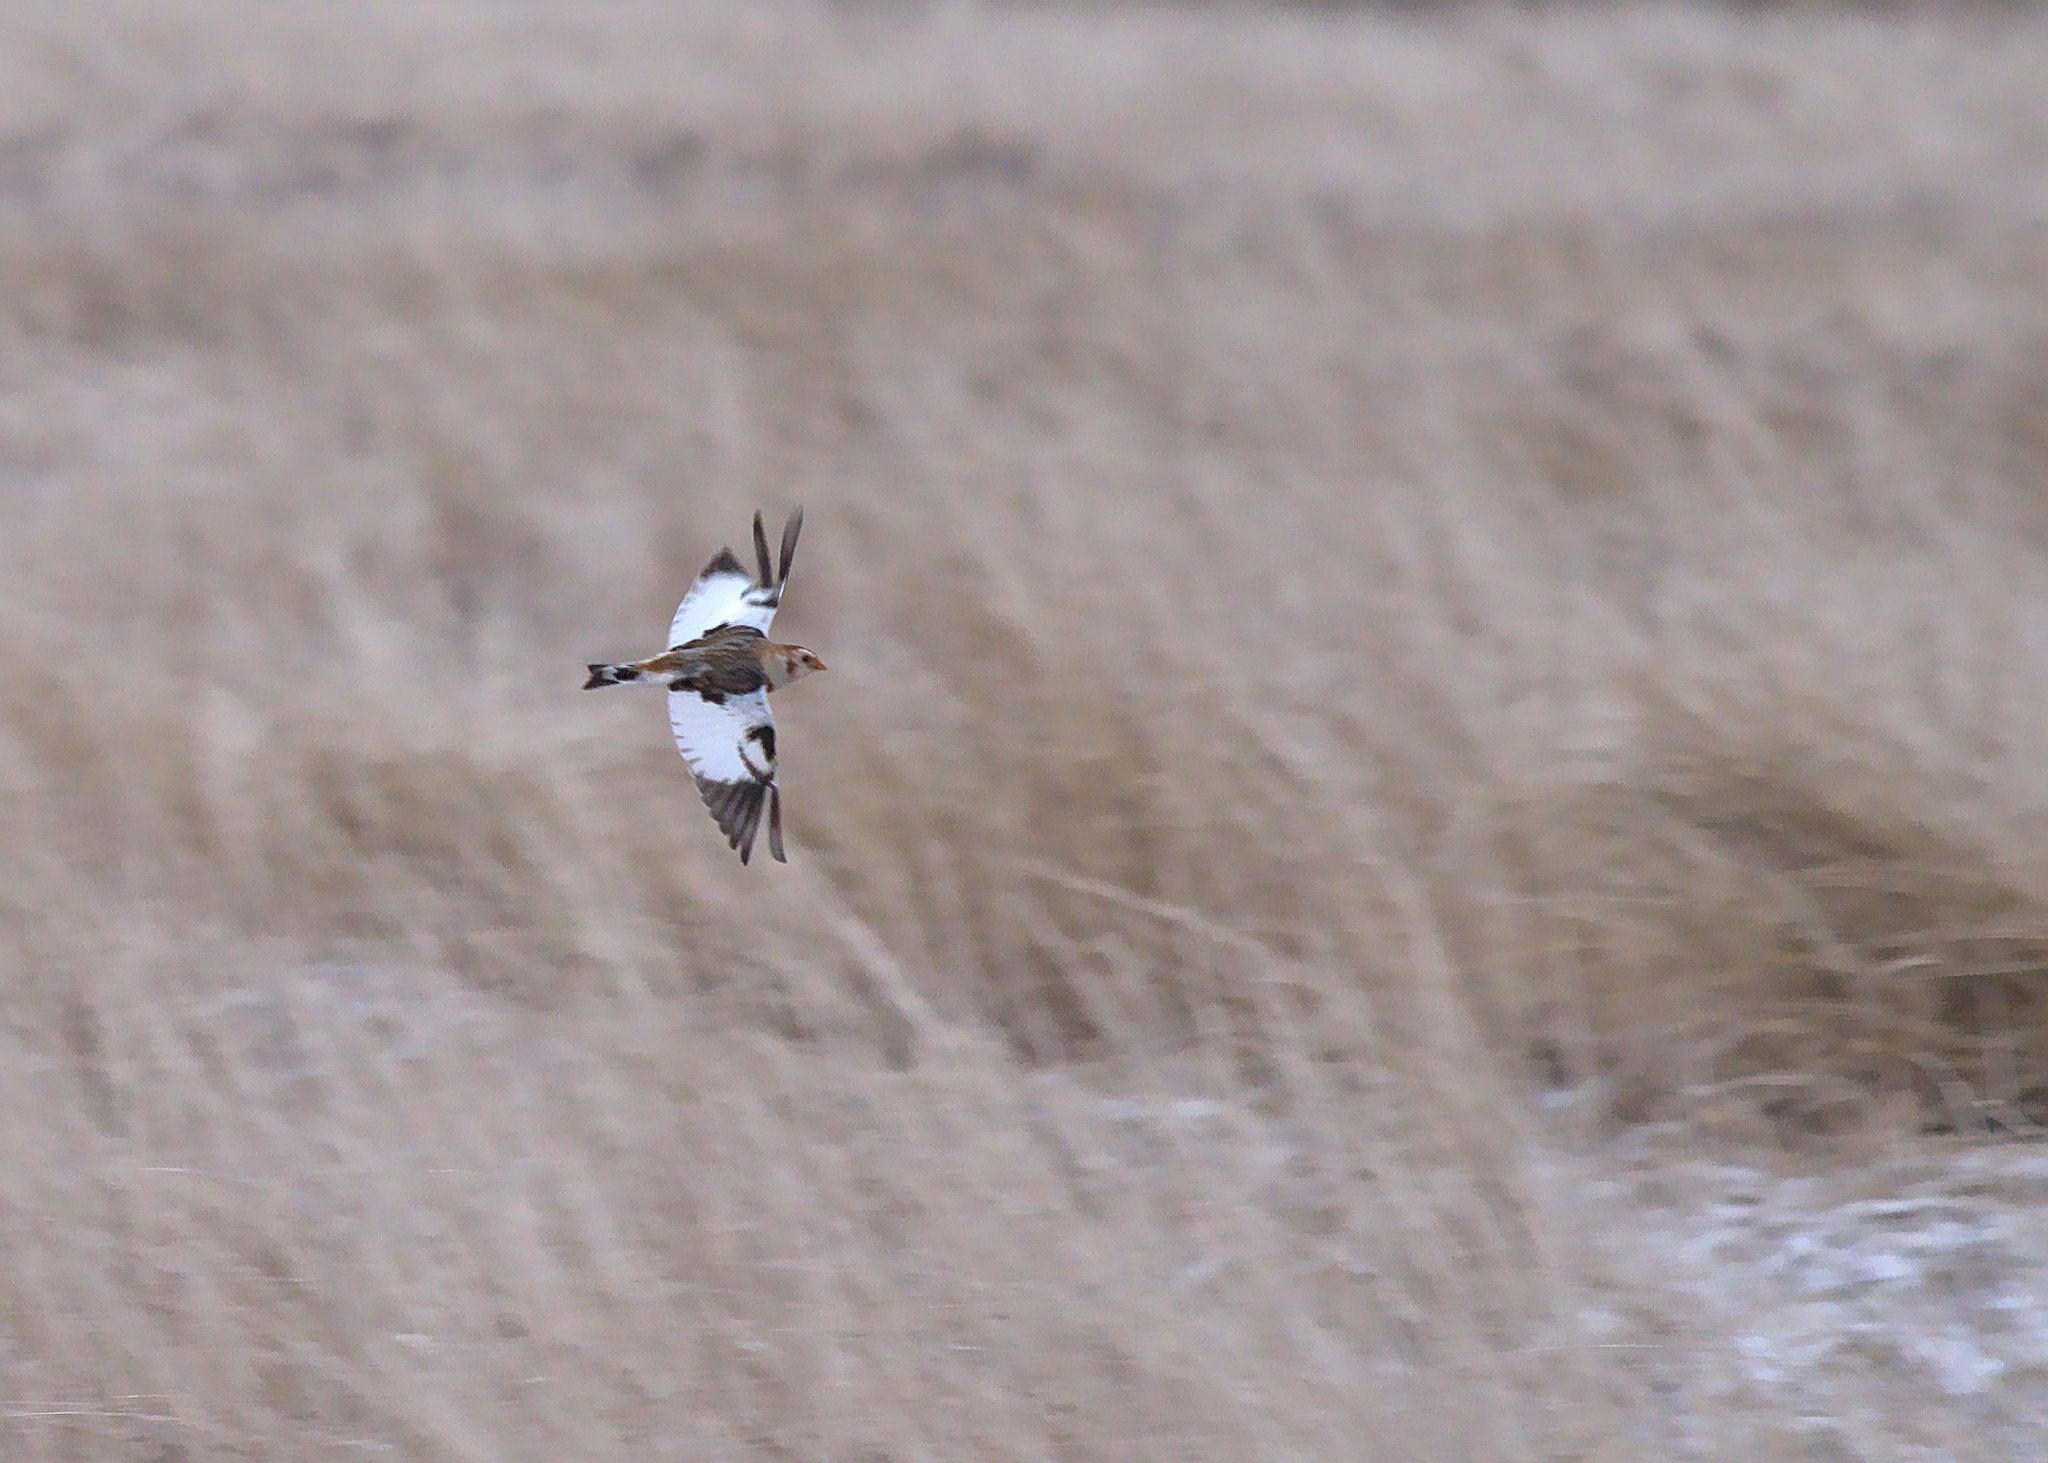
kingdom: Animalia
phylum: Chordata
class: Aves
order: Passeriformes
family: Calcariidae
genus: Plectrophenax
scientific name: Plectrophenax nivalis
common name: Snow bunting
